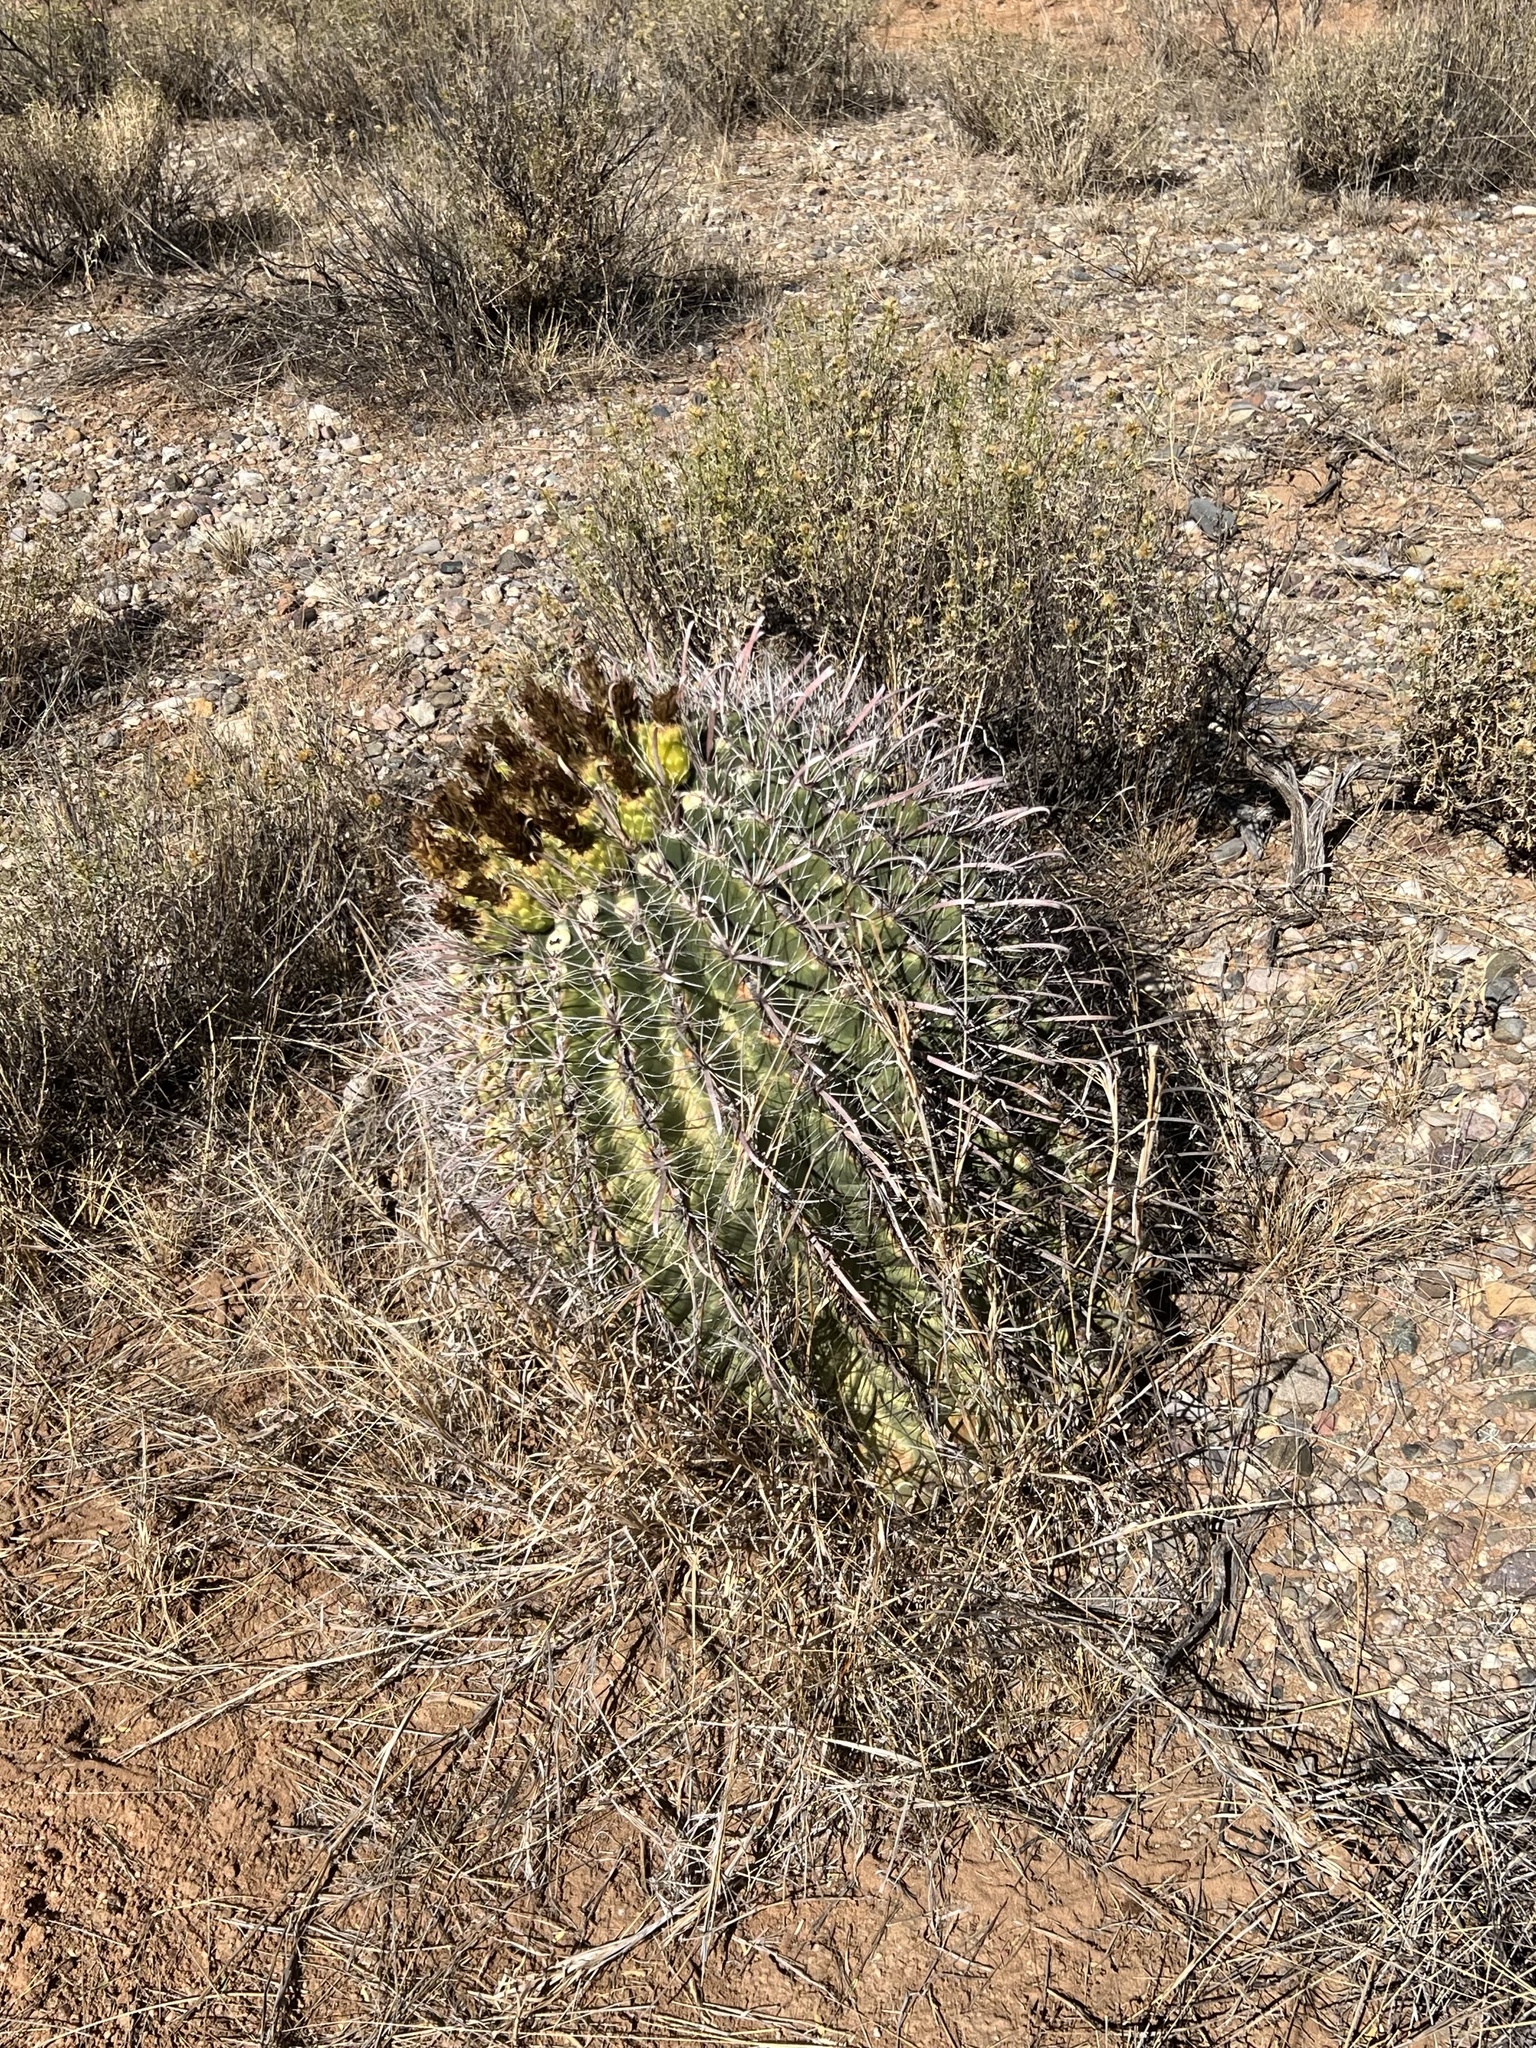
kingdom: Plantae
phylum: Tracheophyta
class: Magnoliopsida
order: Caryophyllales
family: Cactaceae
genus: Ferocactus
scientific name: Ferocactus wislizeni
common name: Candy barrel cactus
